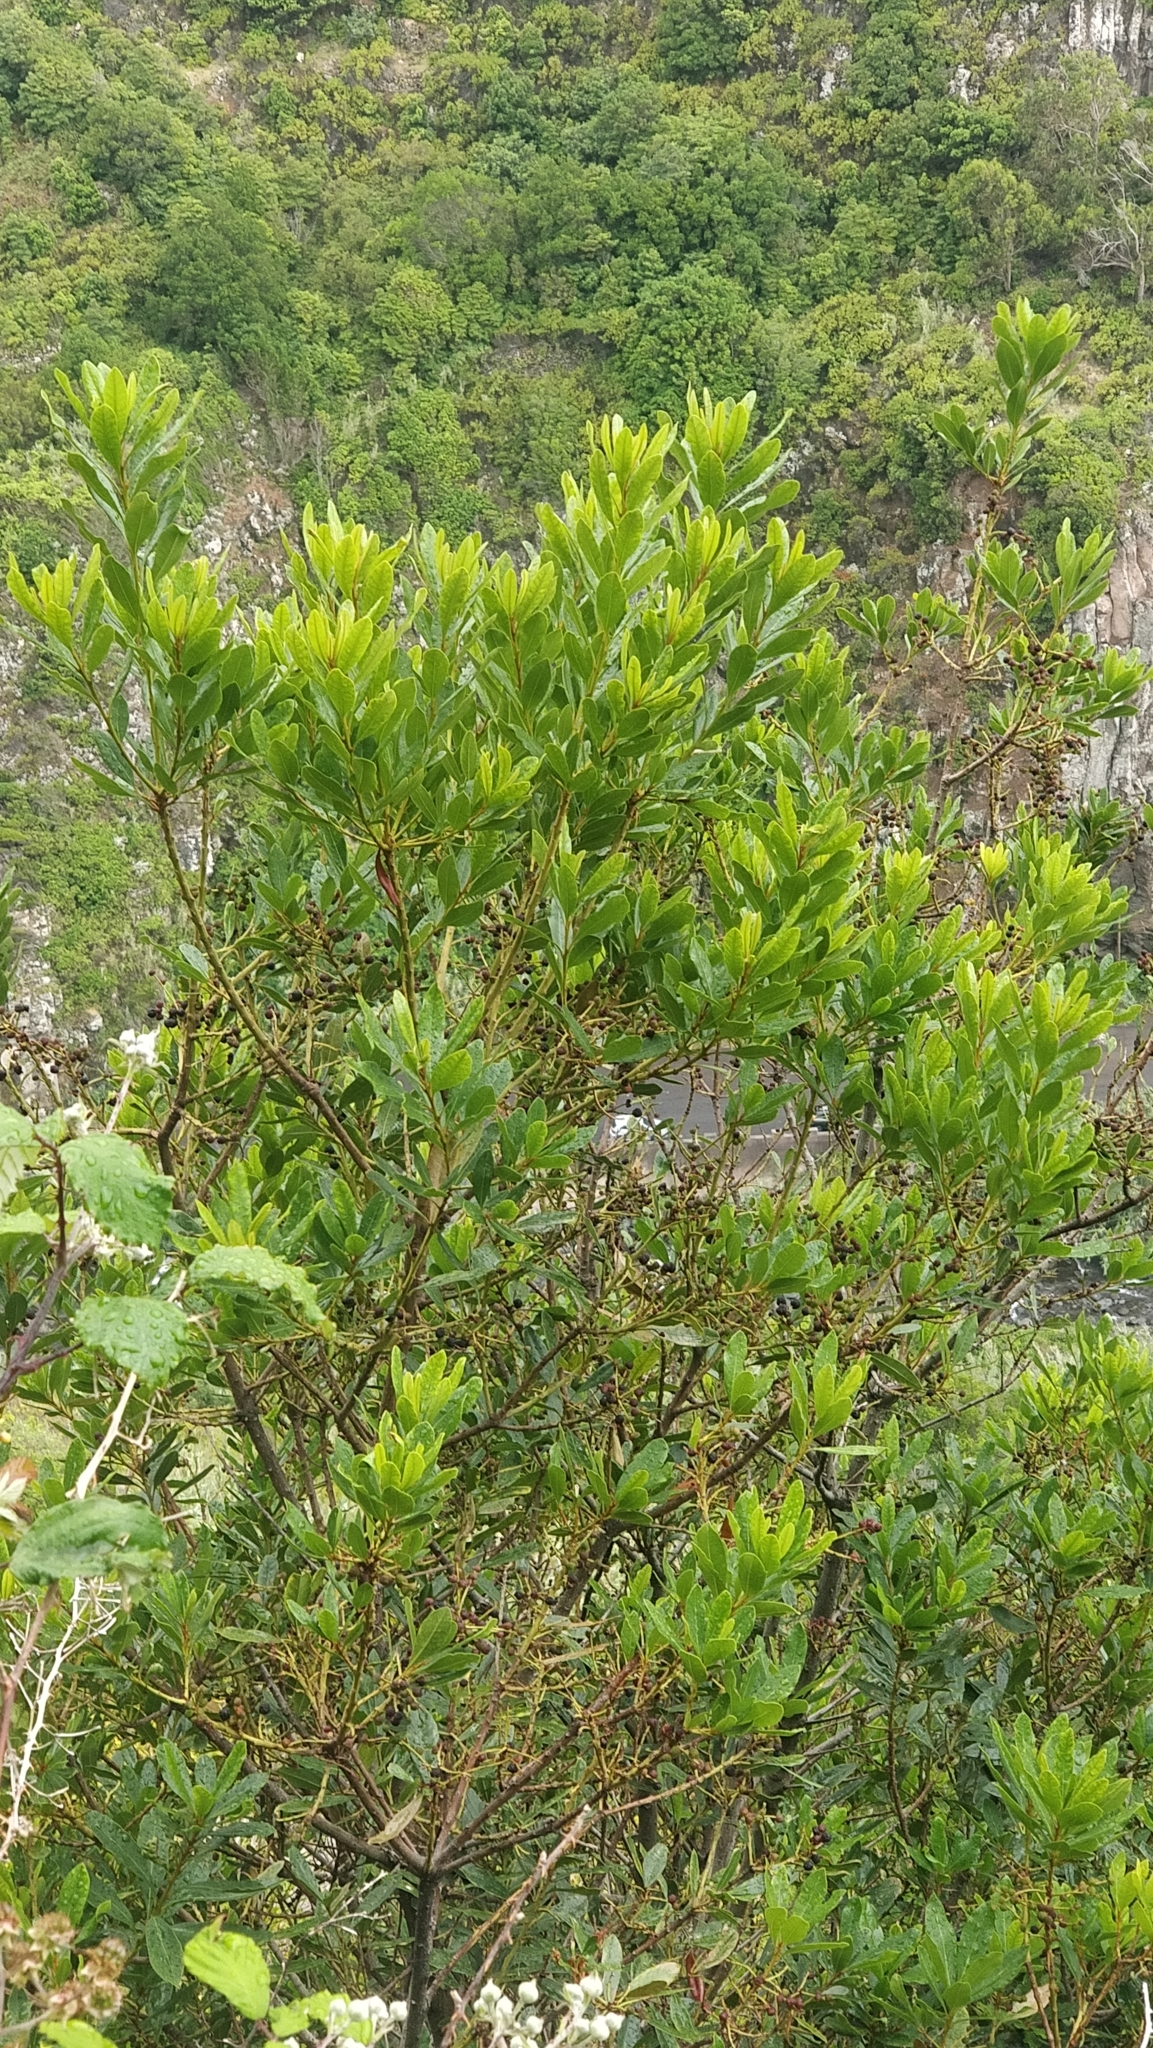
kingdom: Plantae
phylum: Tracheophyta
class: Magnoliopsida
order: Fagales
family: Myricaceae
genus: Morella
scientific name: Morella faya
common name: Firetree
